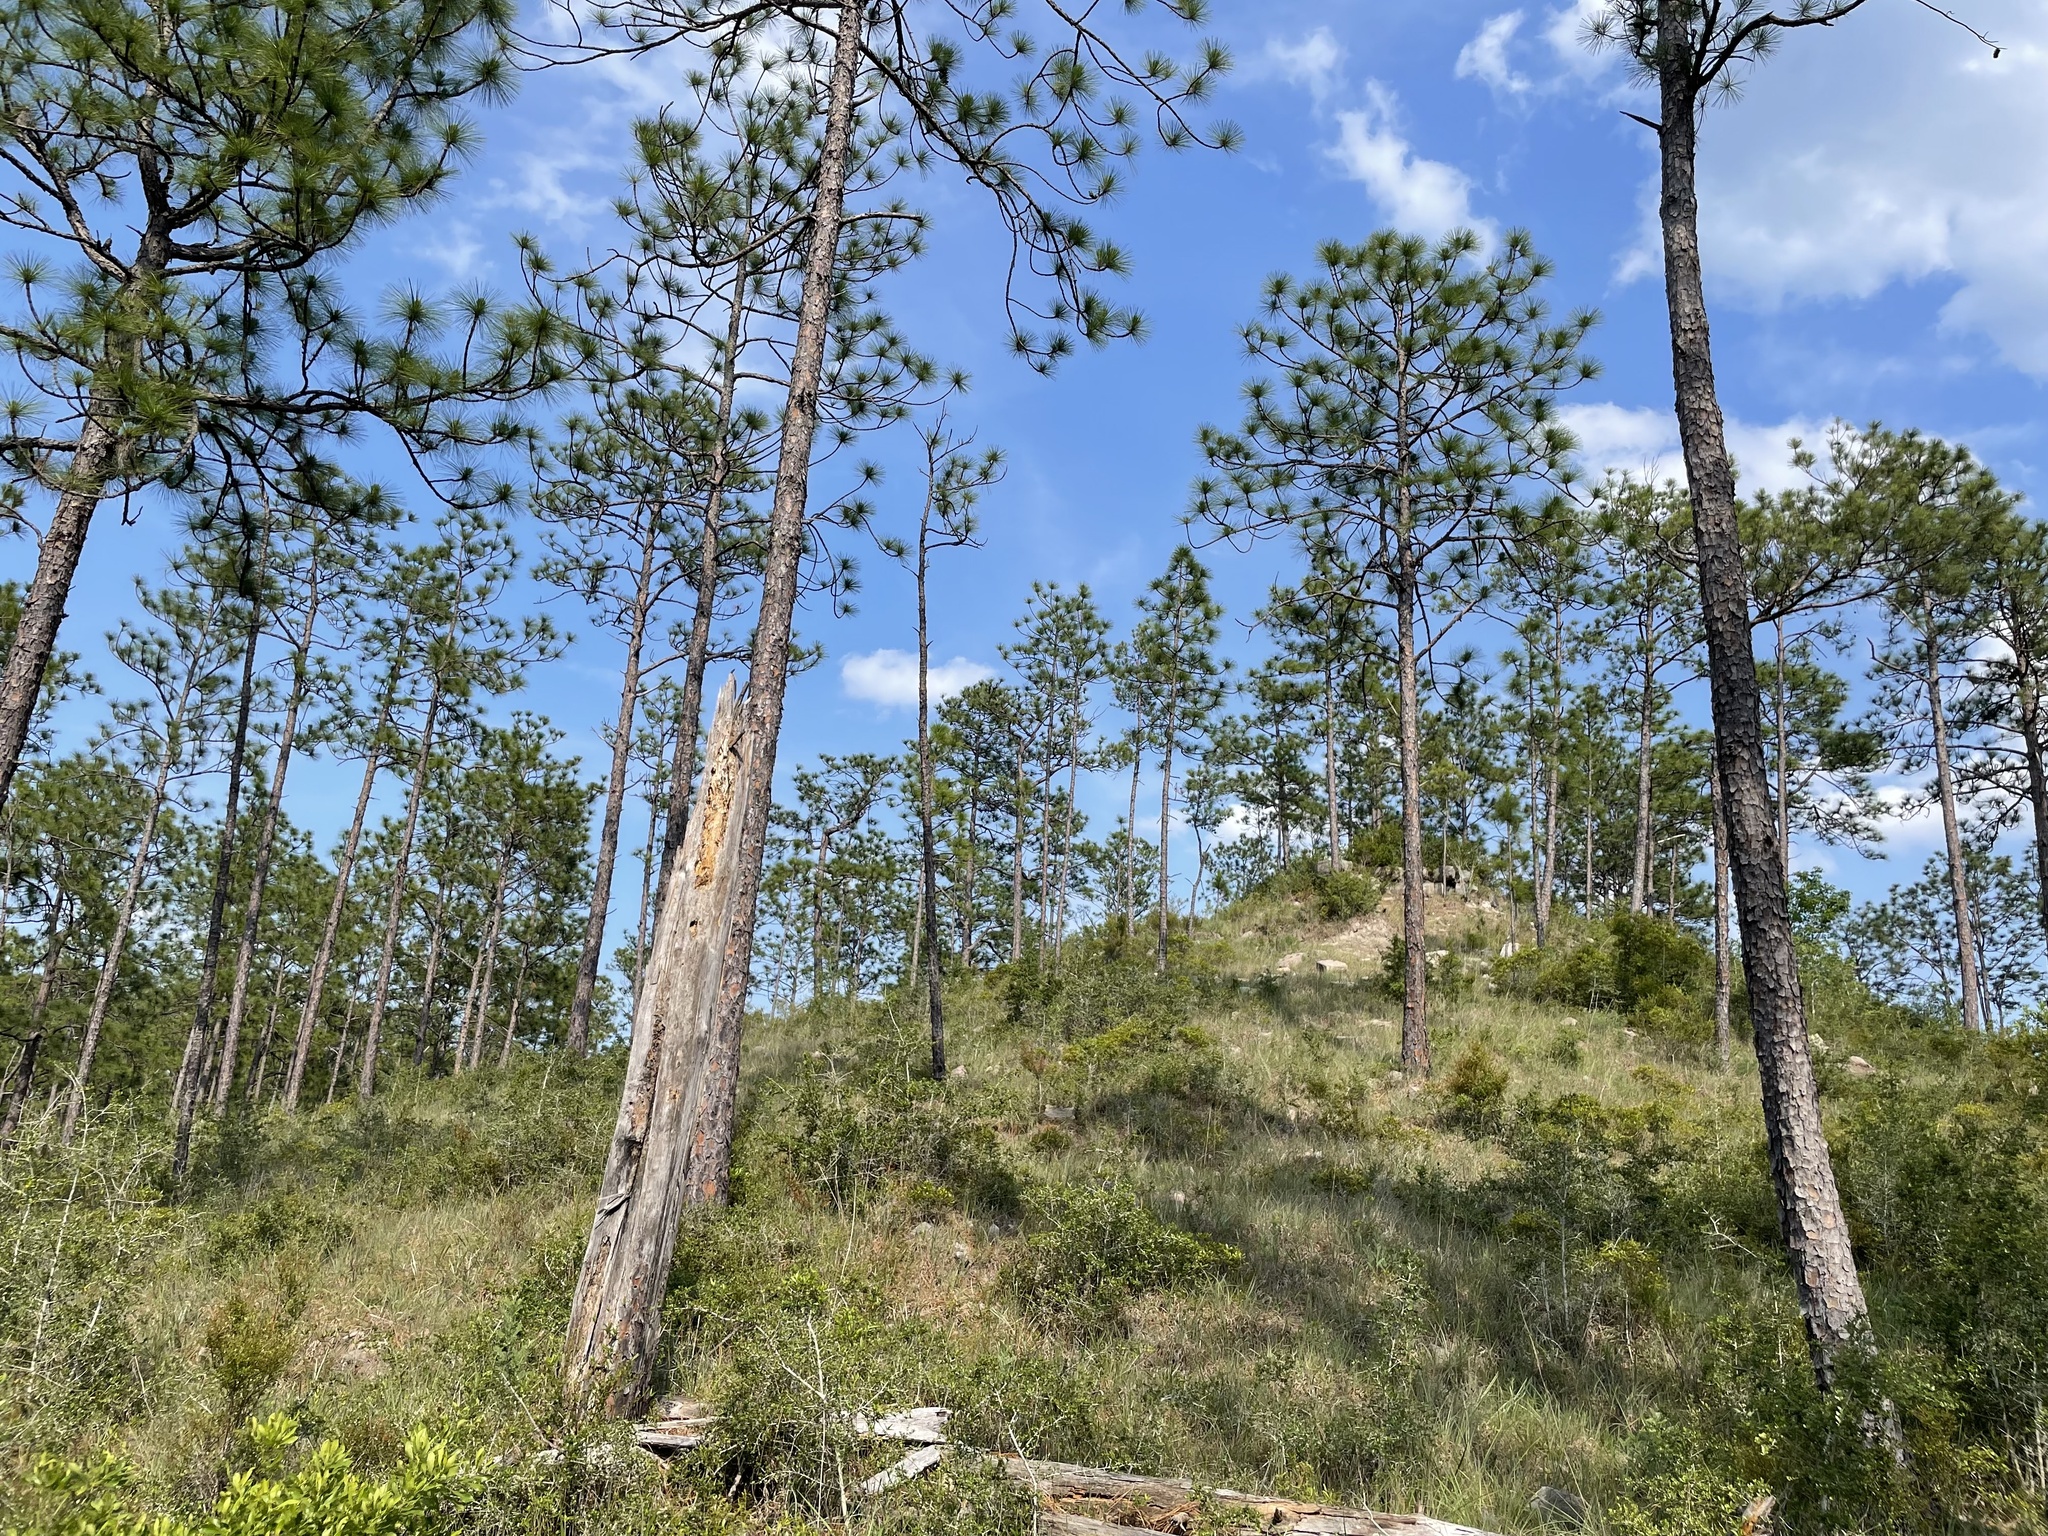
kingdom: Plantae
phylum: Tracheophyta
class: Pinopsida
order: Pinales
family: Pinaceae
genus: Pinus
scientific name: Pinus palustris
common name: Longleaf pine
